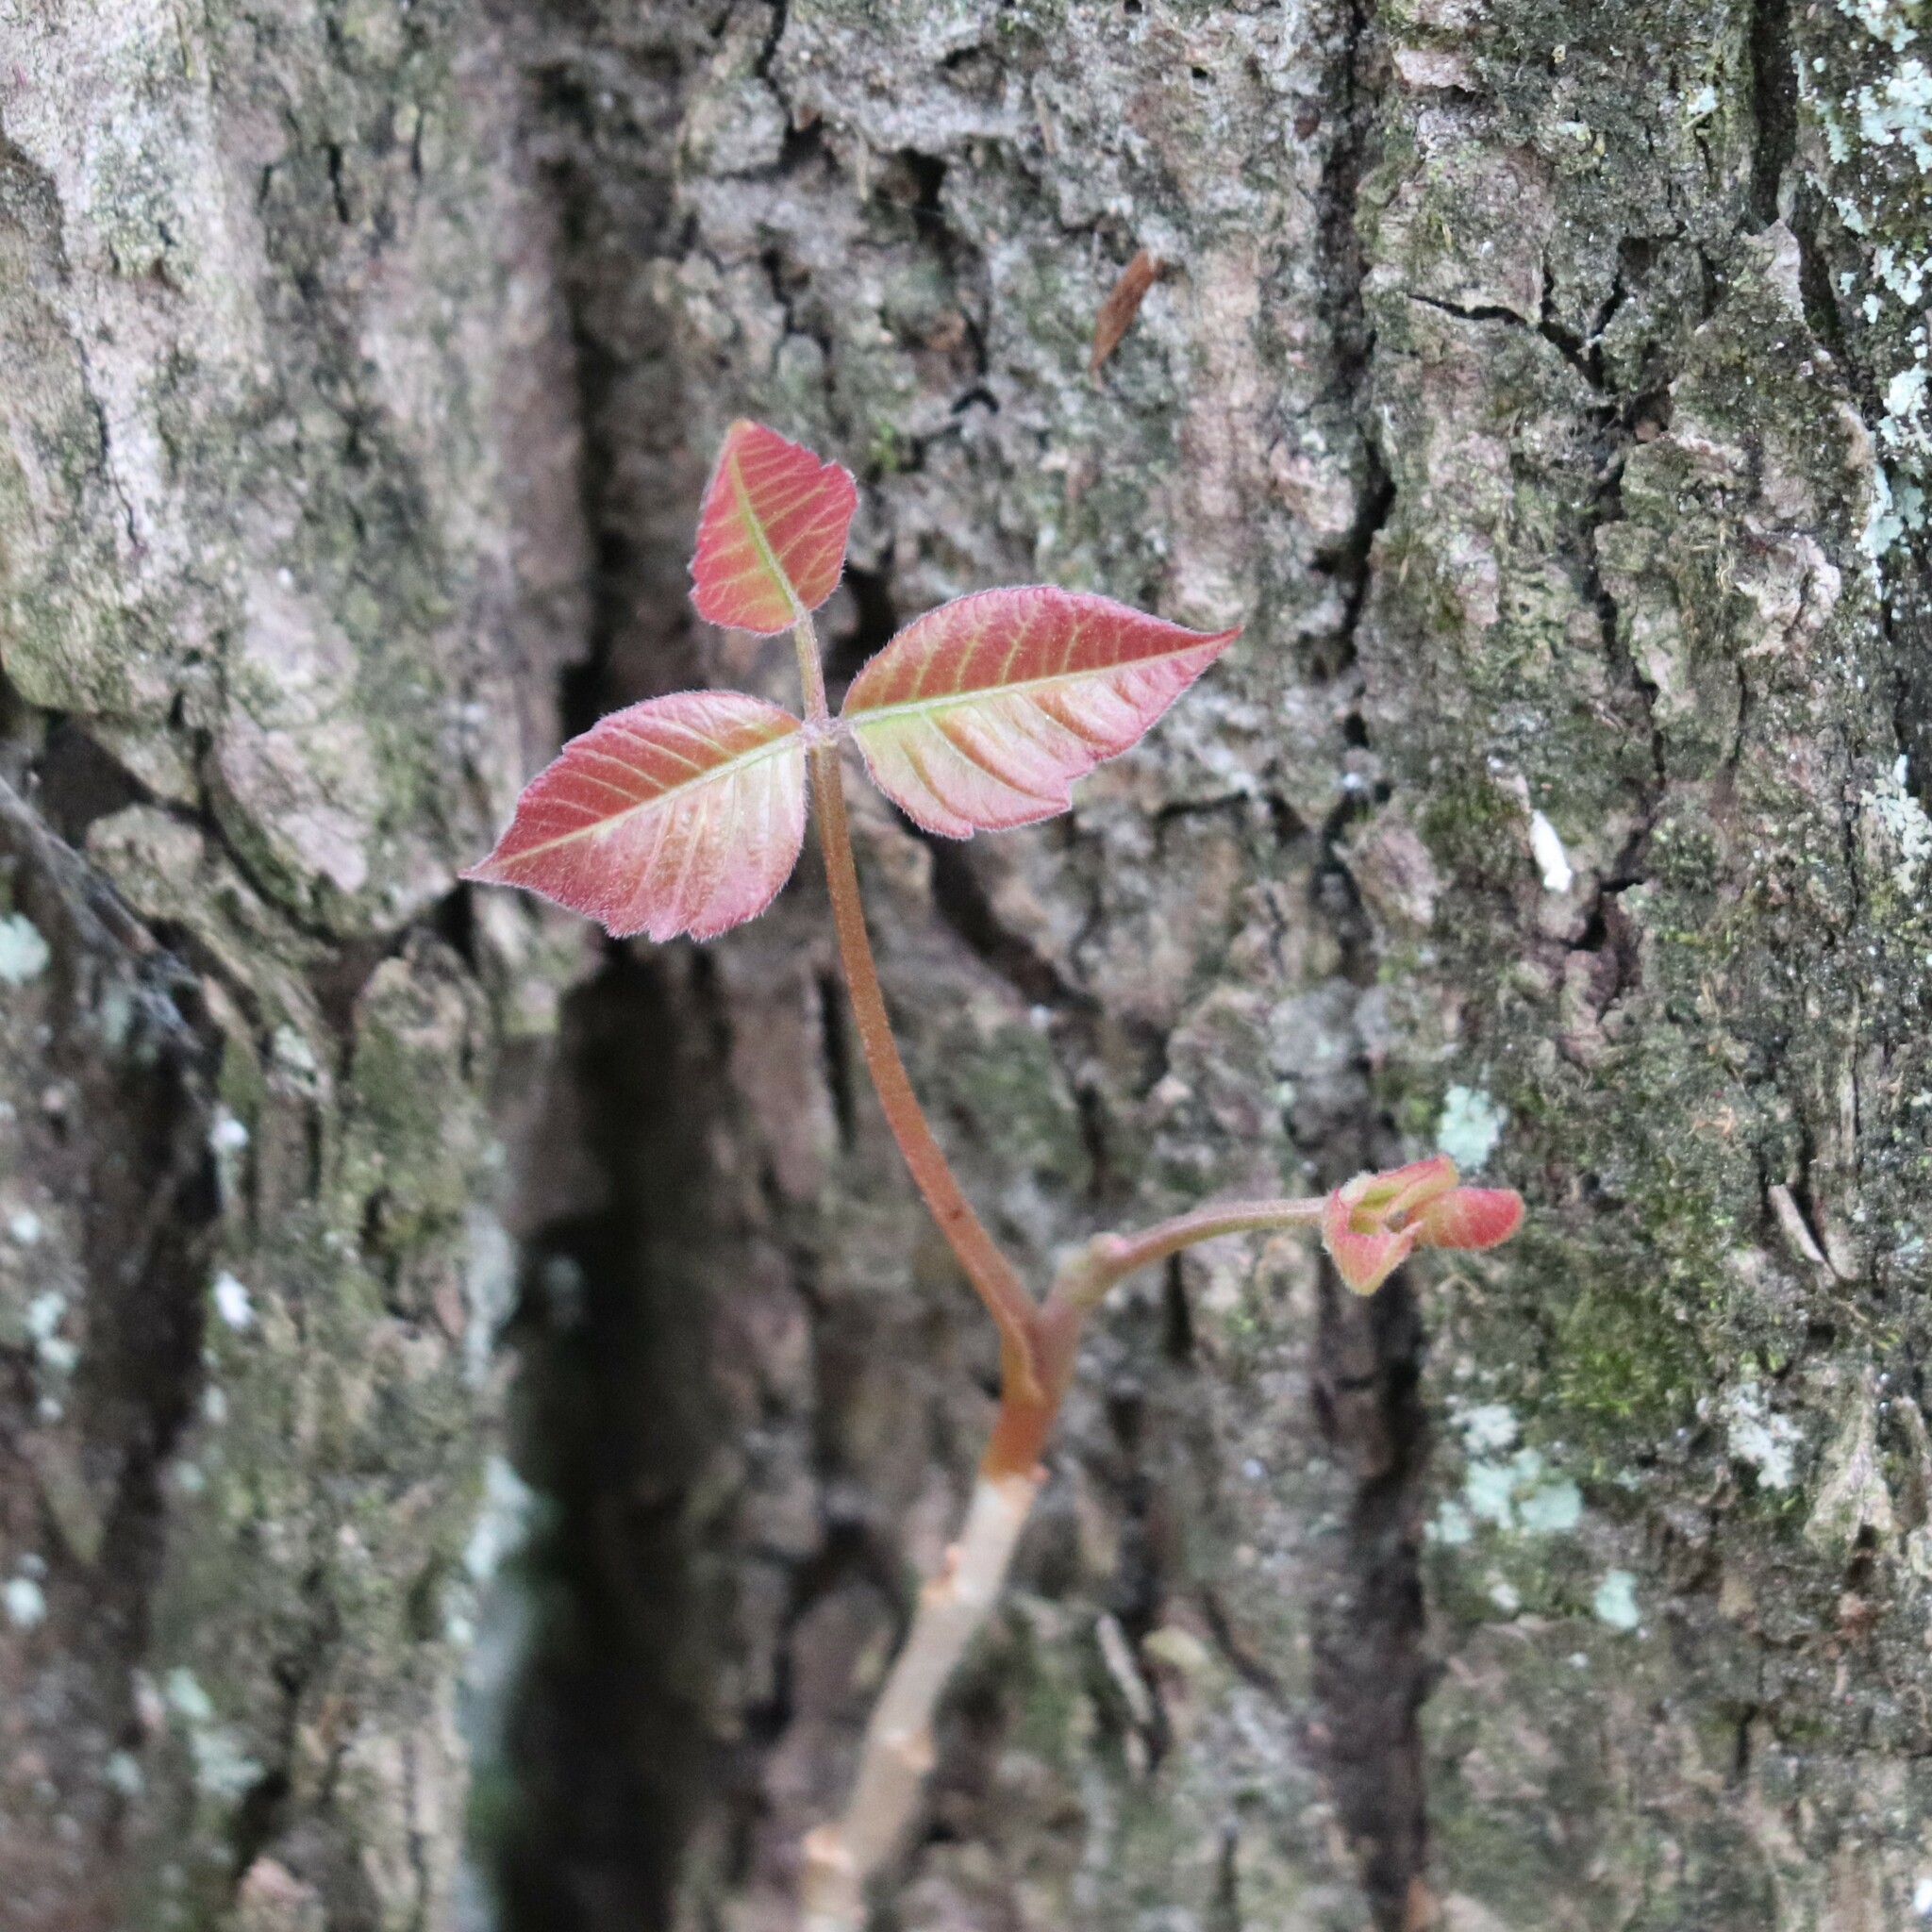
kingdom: Plantae
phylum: Tracheophyta
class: Magnoliopsida
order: Sapindales
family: Anacardiaceae
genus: Toxicodendron
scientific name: Toxicodendron radicans
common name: Poison ivy
